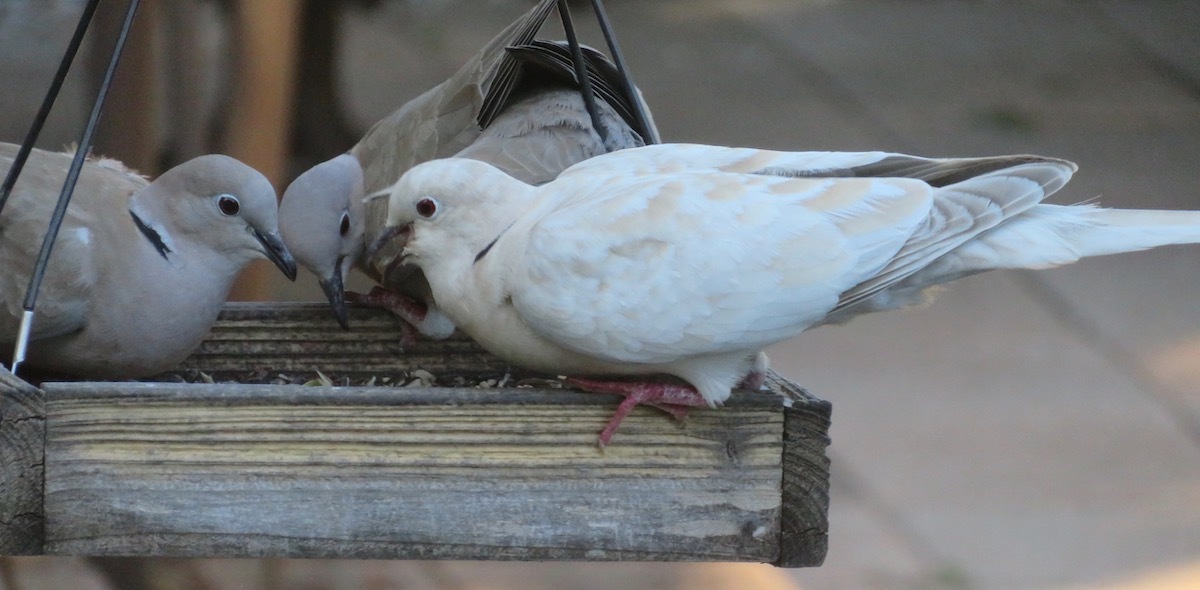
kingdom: Animalia
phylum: Chordata
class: Aves
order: Columbiformes
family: Columbidae
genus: Streptopelia
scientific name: Streptopelia roseogrisea
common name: African collared dove
